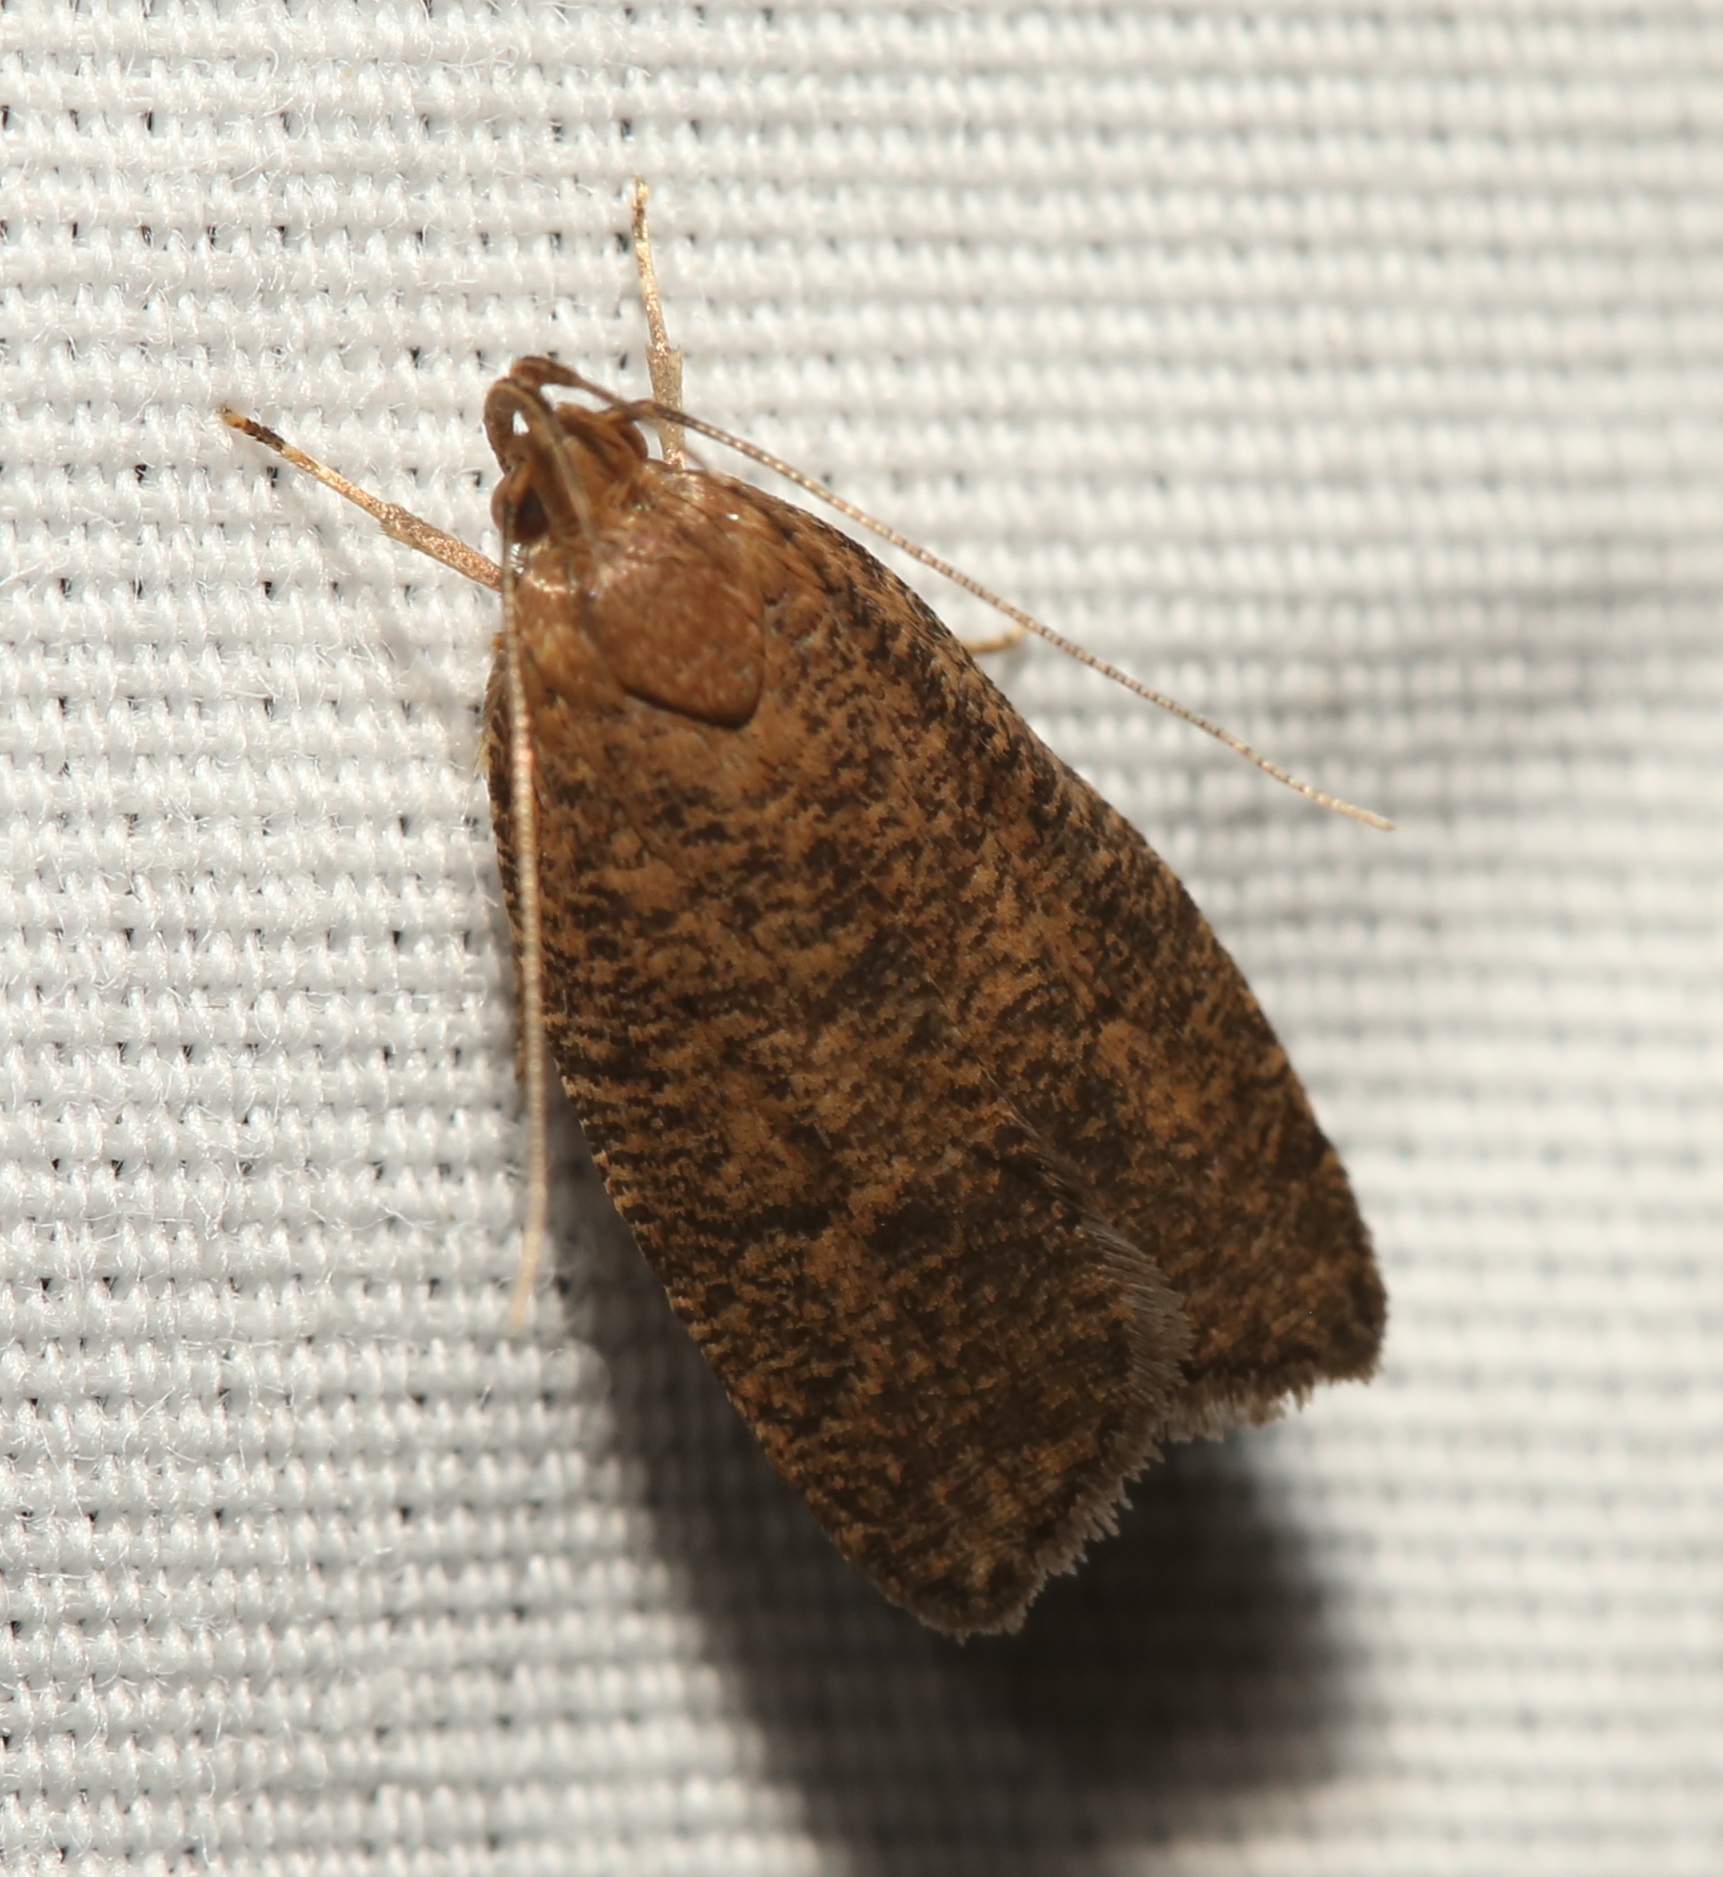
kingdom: Animalia
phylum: Arthropoda
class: Insecta
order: Lepidoptera
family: Depressariidae
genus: Psilocorsis
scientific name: Psilocorsis reflexella
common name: Dotted leaftier moth
